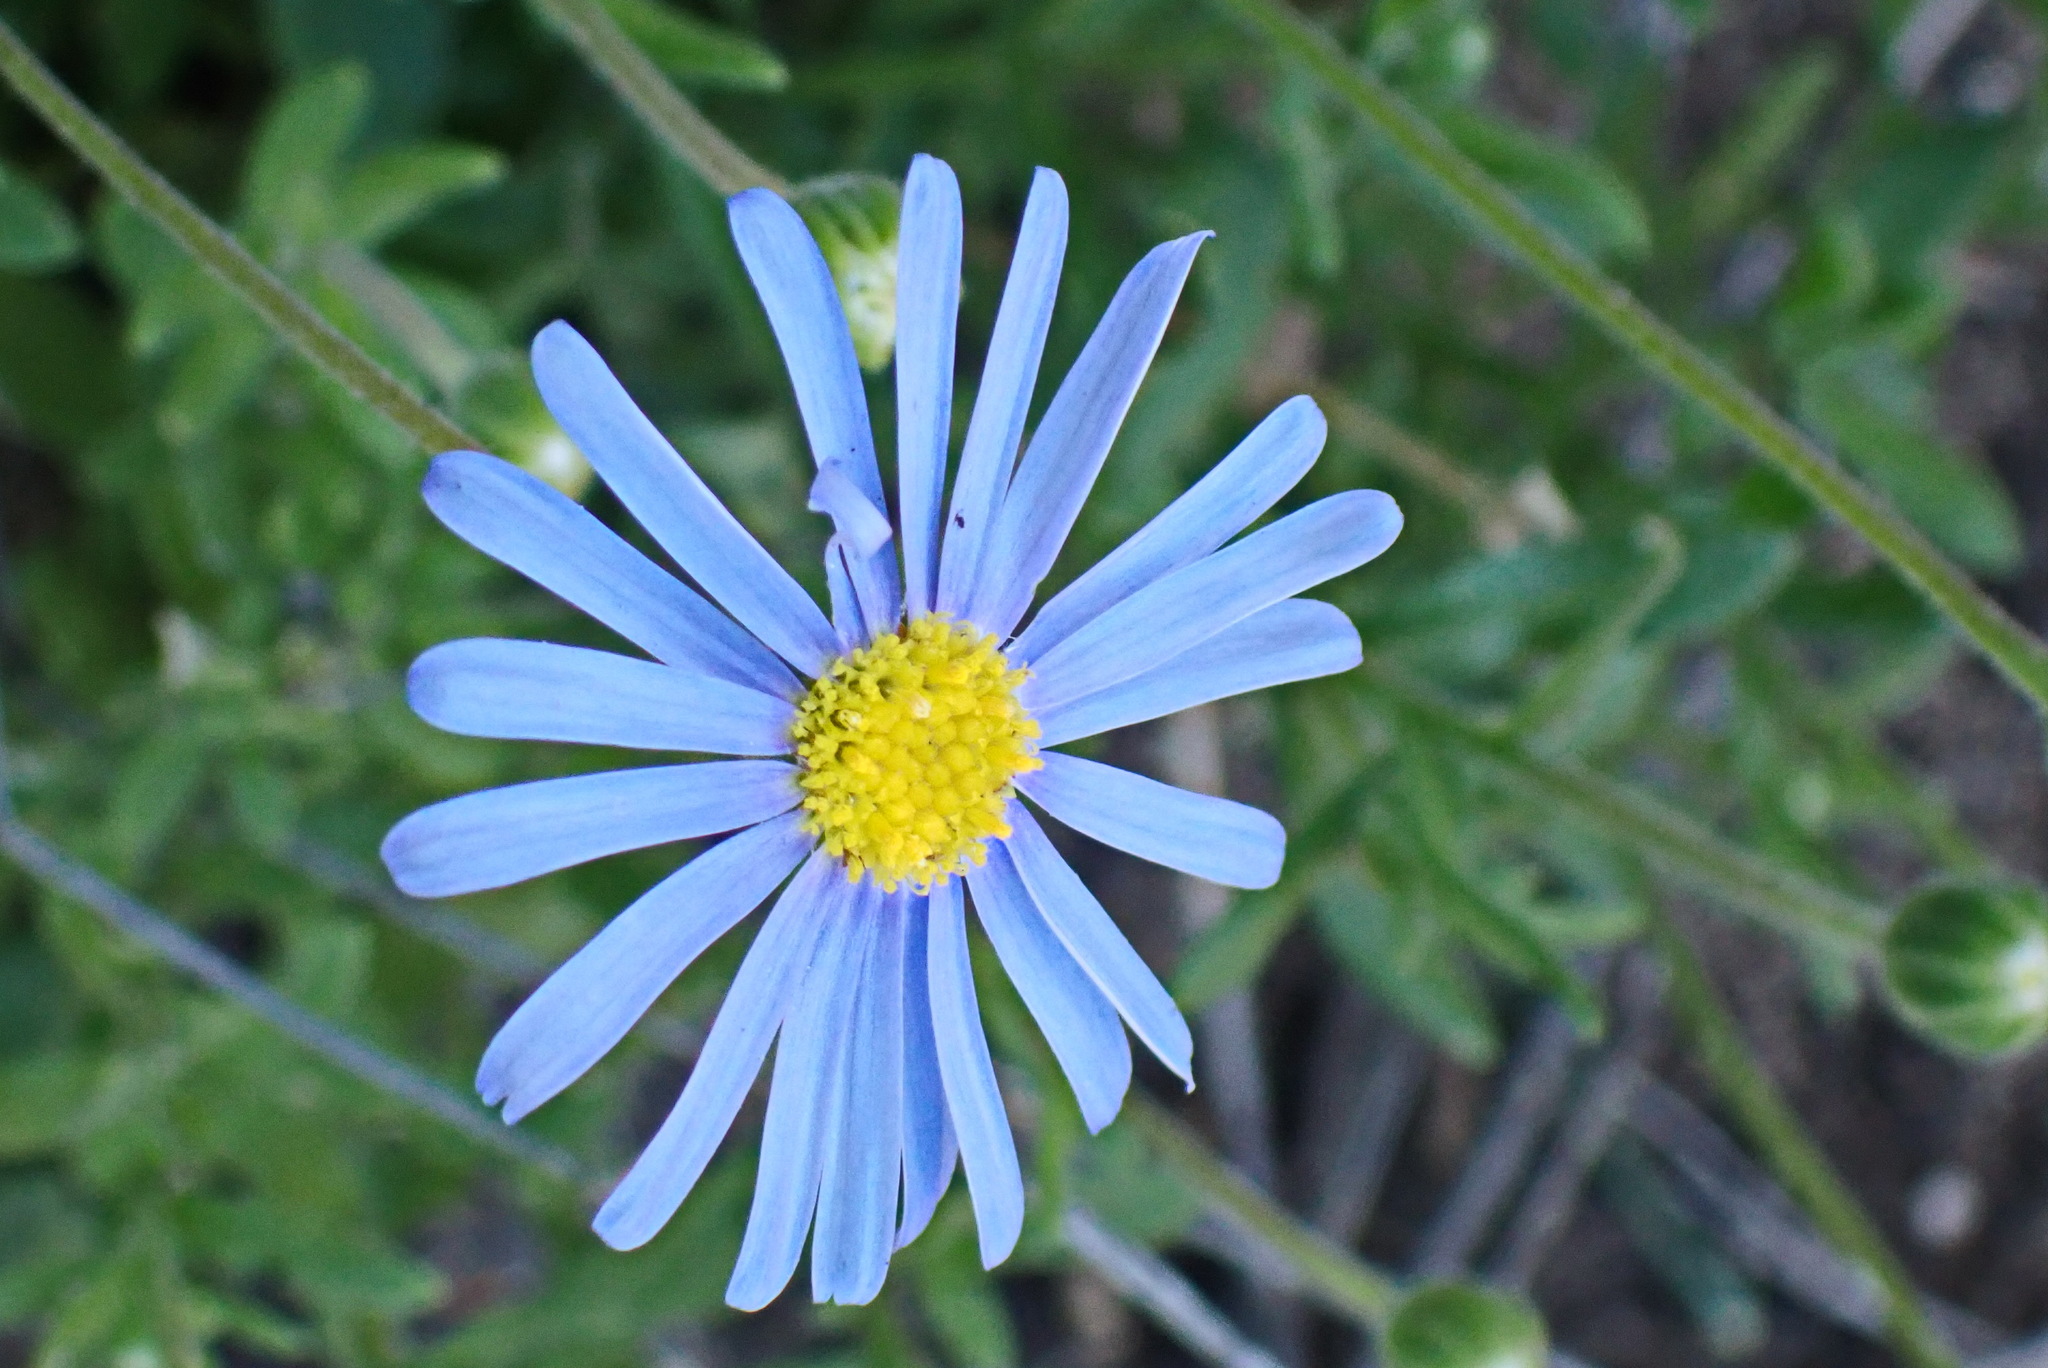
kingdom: Plantae
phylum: Tracheophyta
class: Magnoliopsida
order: Asterales
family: Asteraceae
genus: Felicia
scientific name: Felicia amoena
